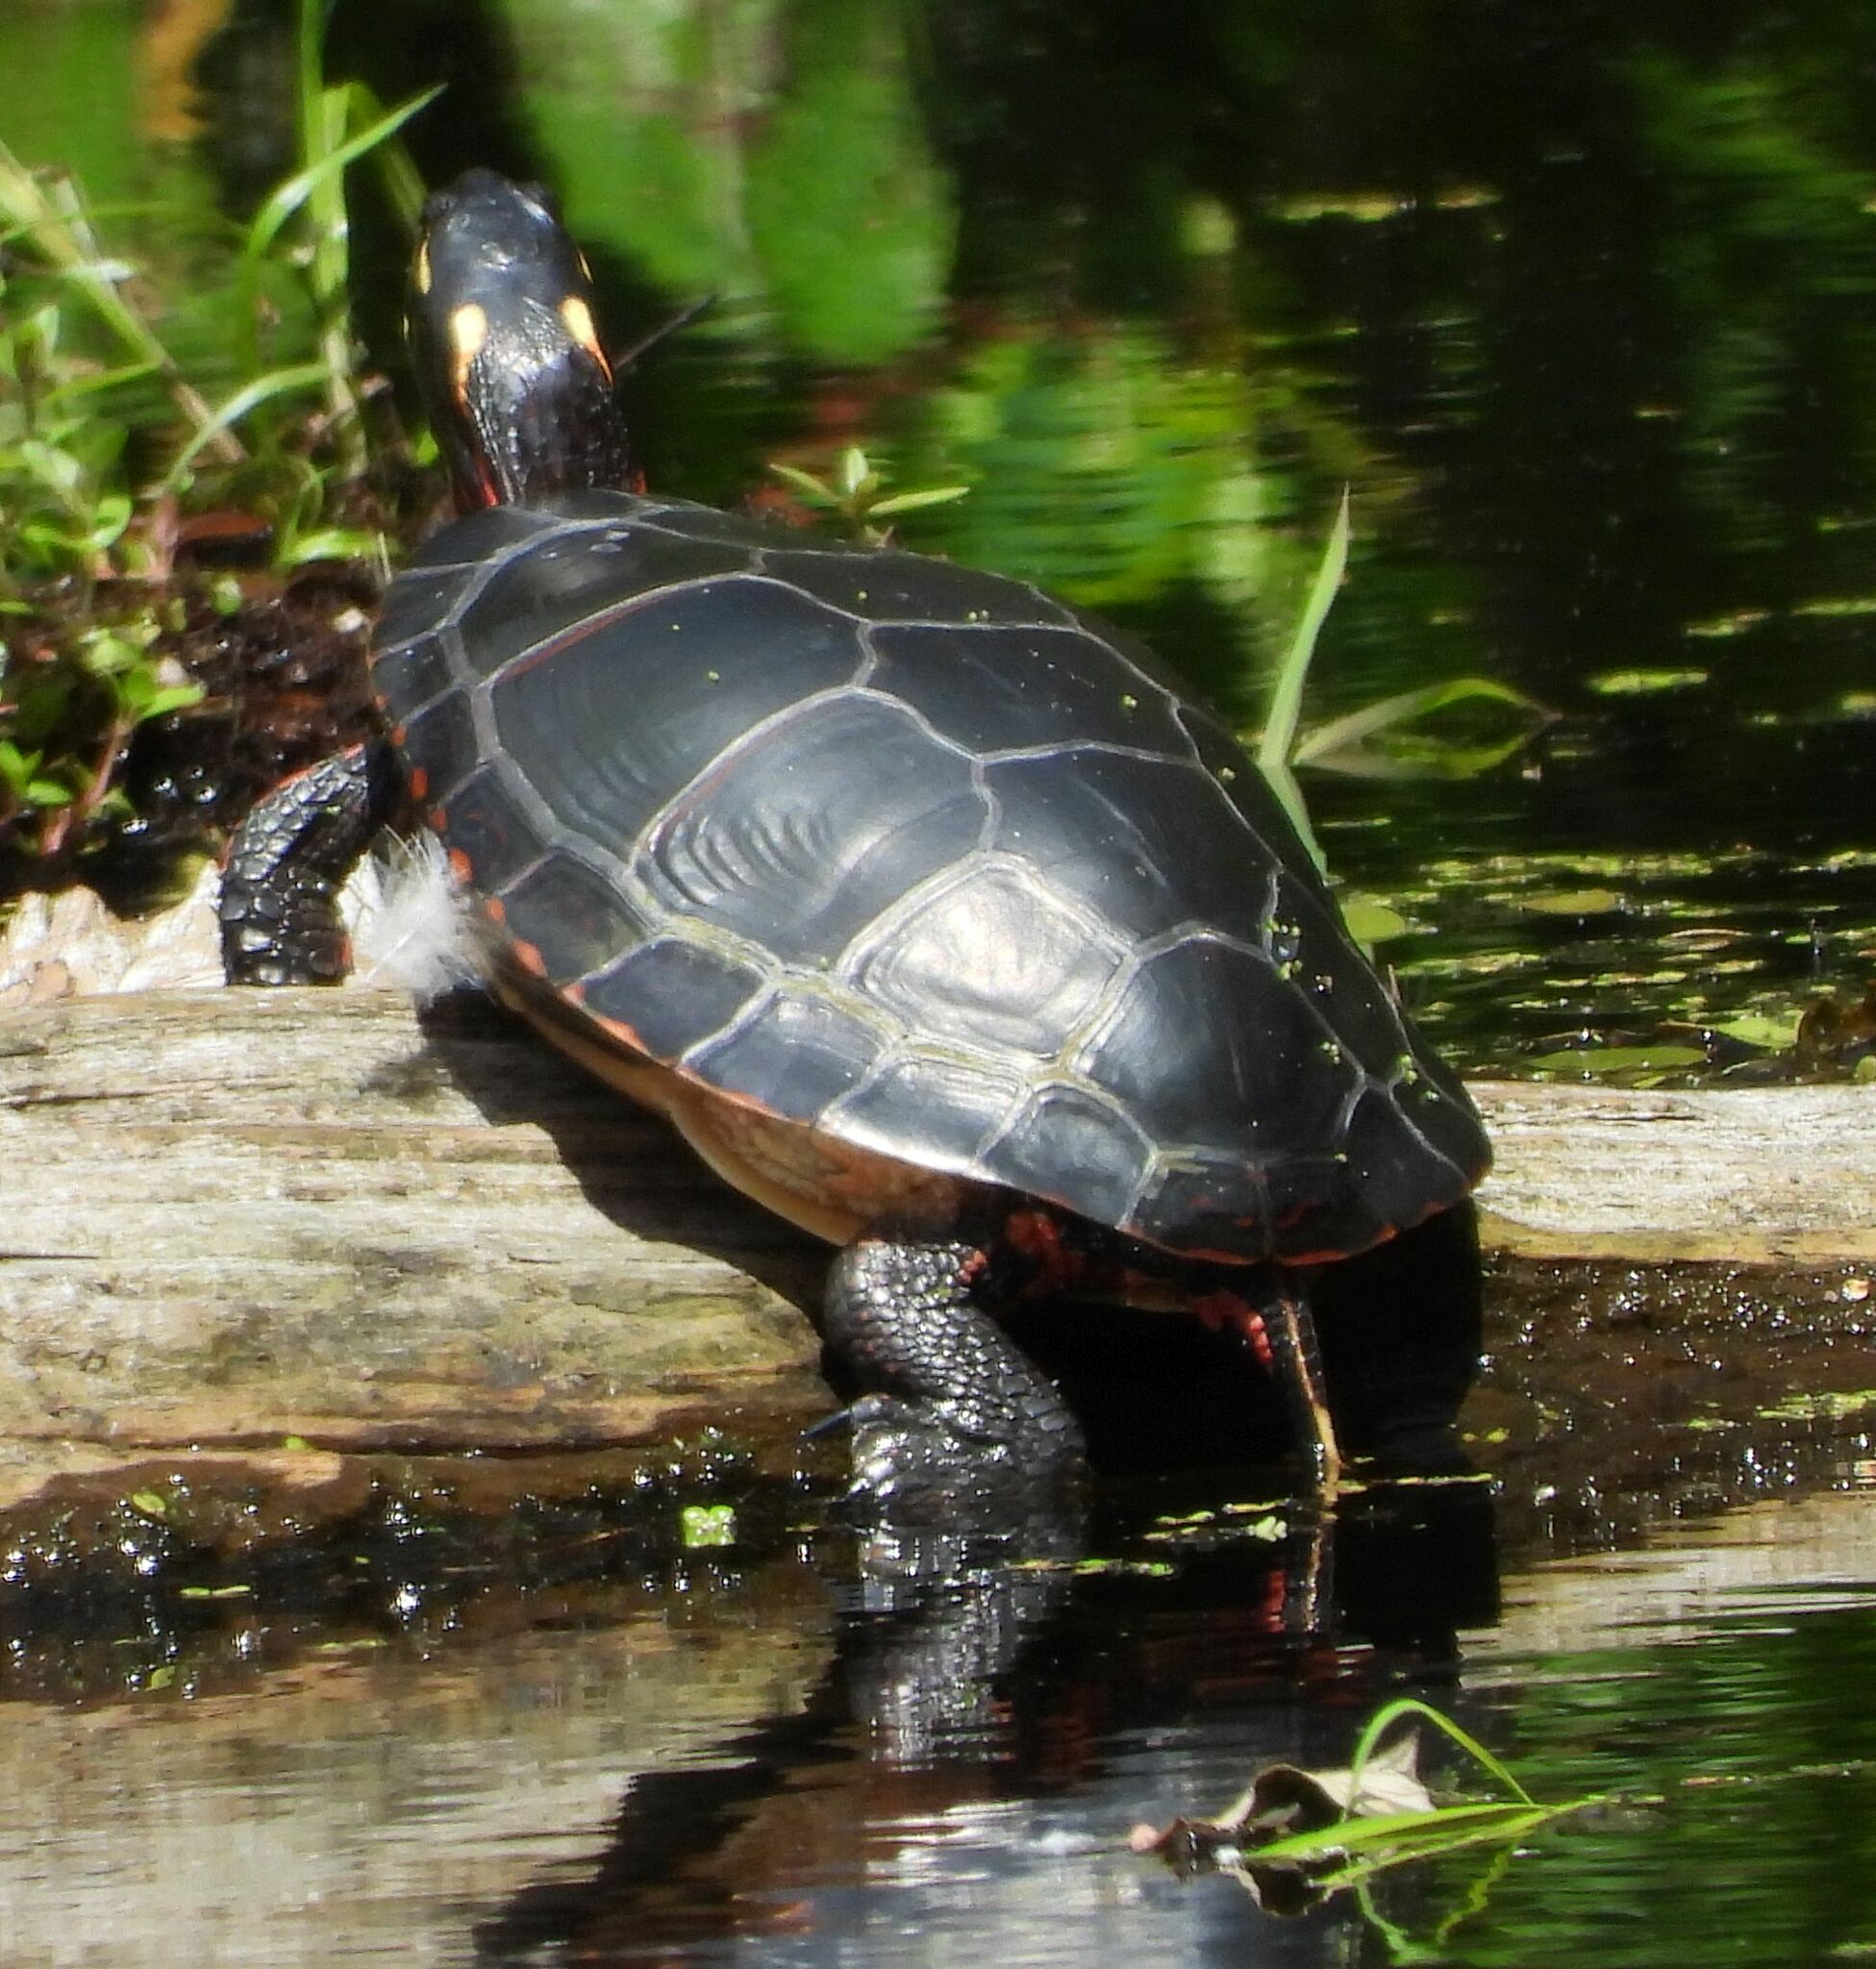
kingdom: Animalia
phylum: Chordata
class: Testudines
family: Emydidae
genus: Chrysemys
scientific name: Chrysemys picta
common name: Painted turtle
